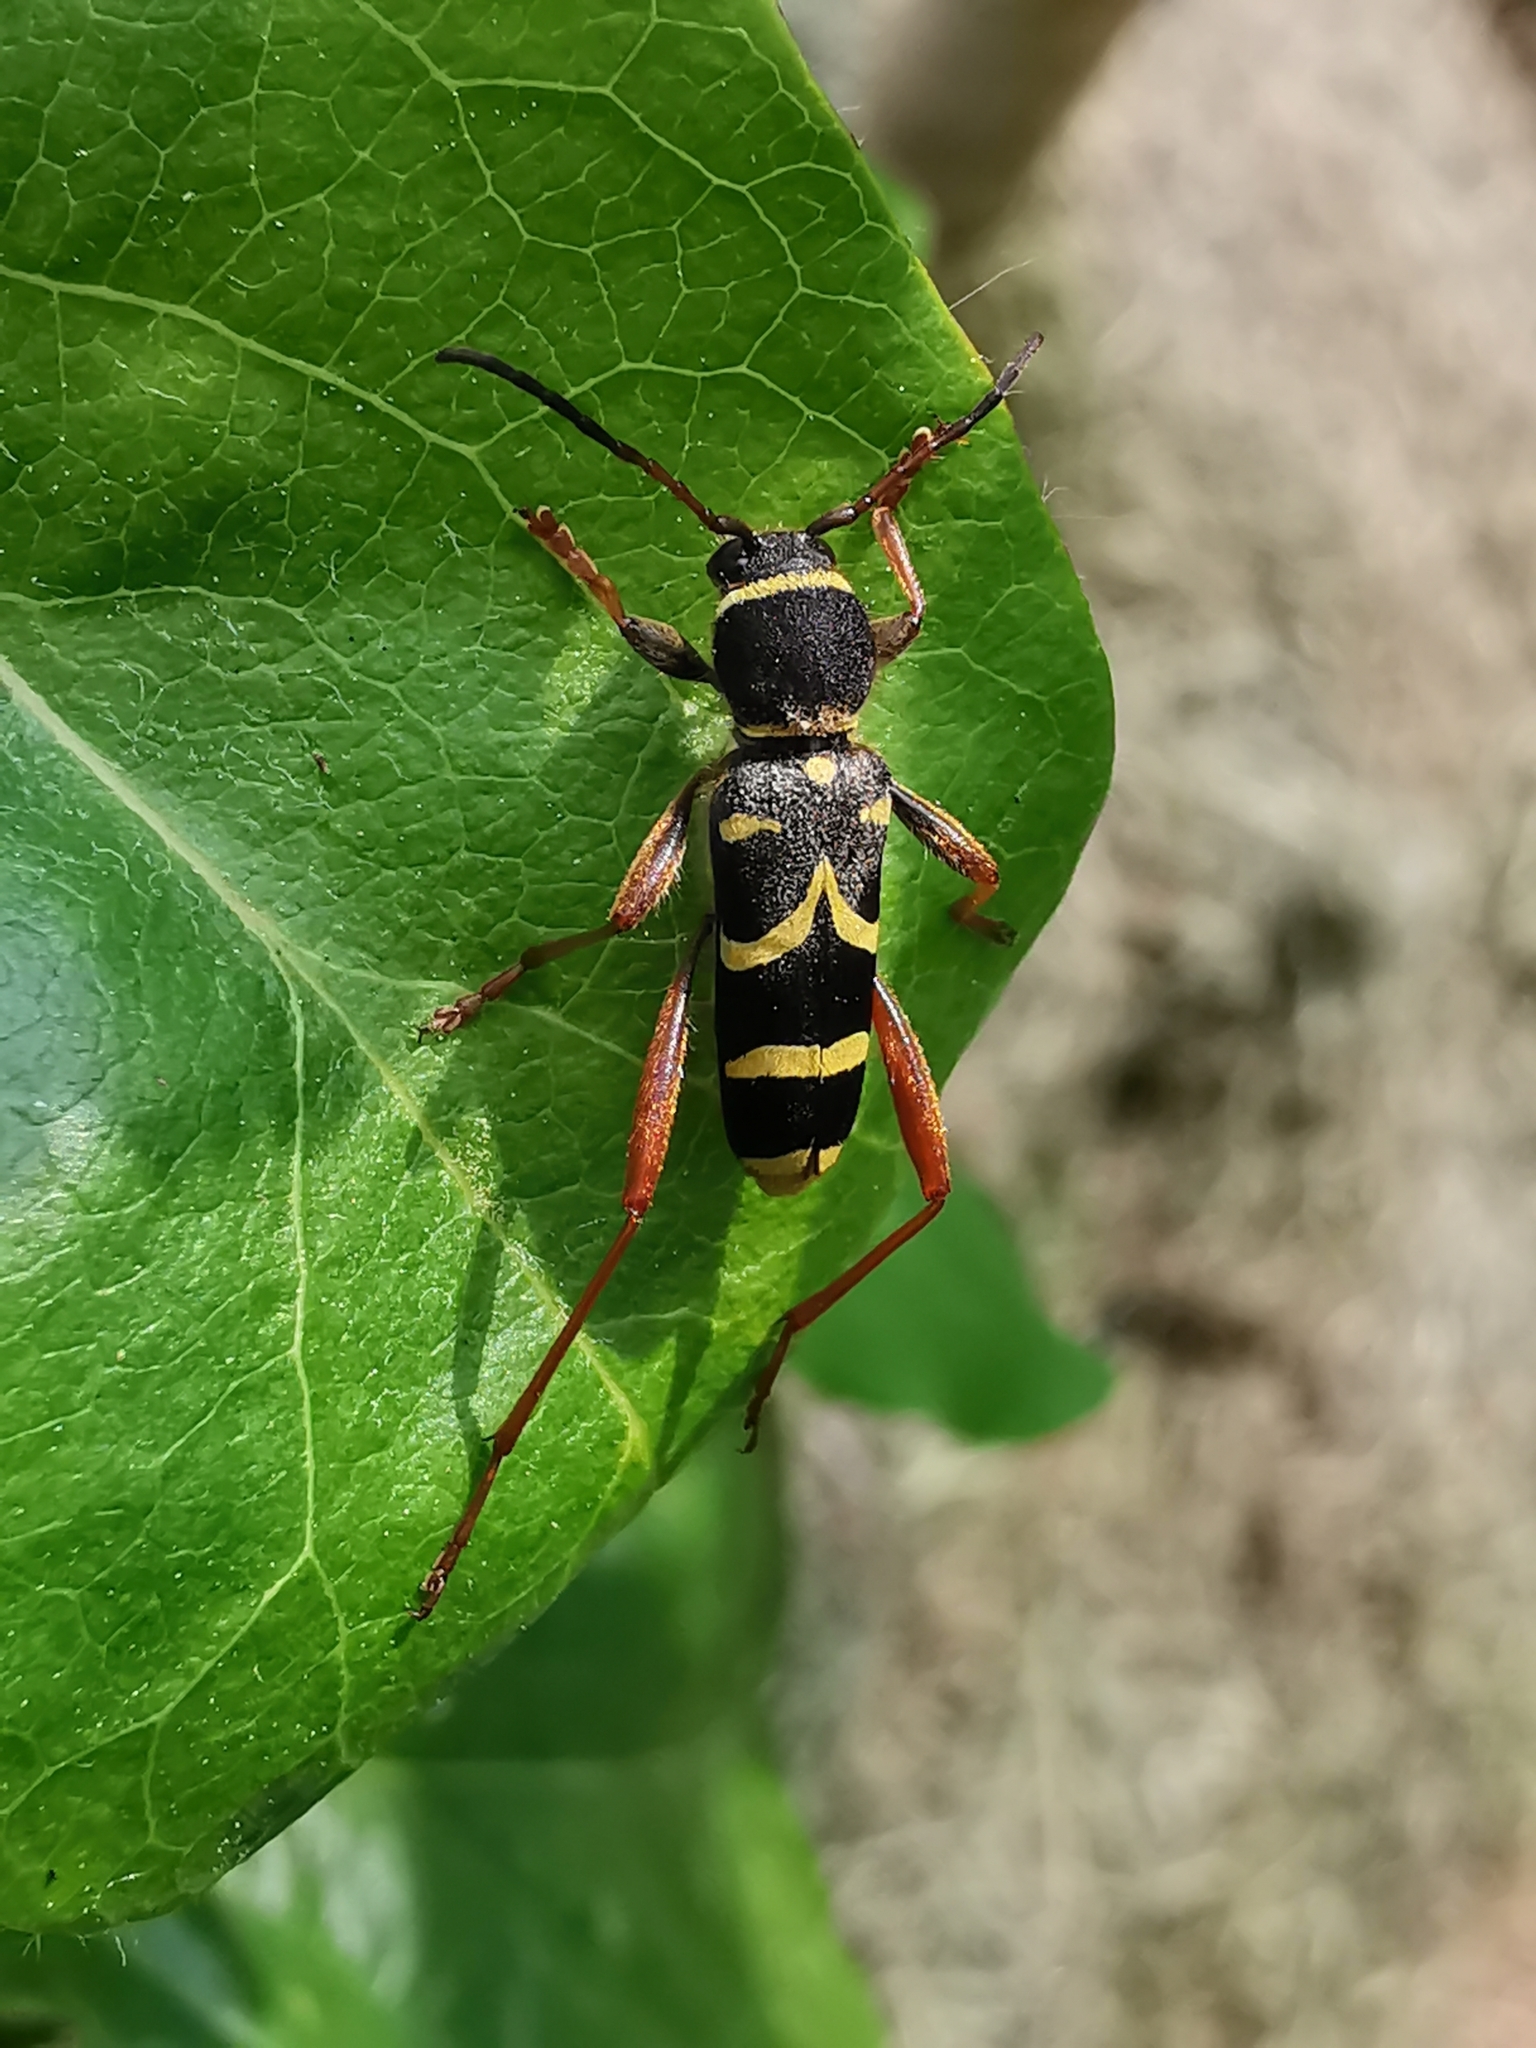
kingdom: Animalia
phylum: Arthropoda
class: Insecta
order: Coleoptera
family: Cerambycidae
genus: Clytus
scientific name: Clytus arietis
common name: Wasp beetle
